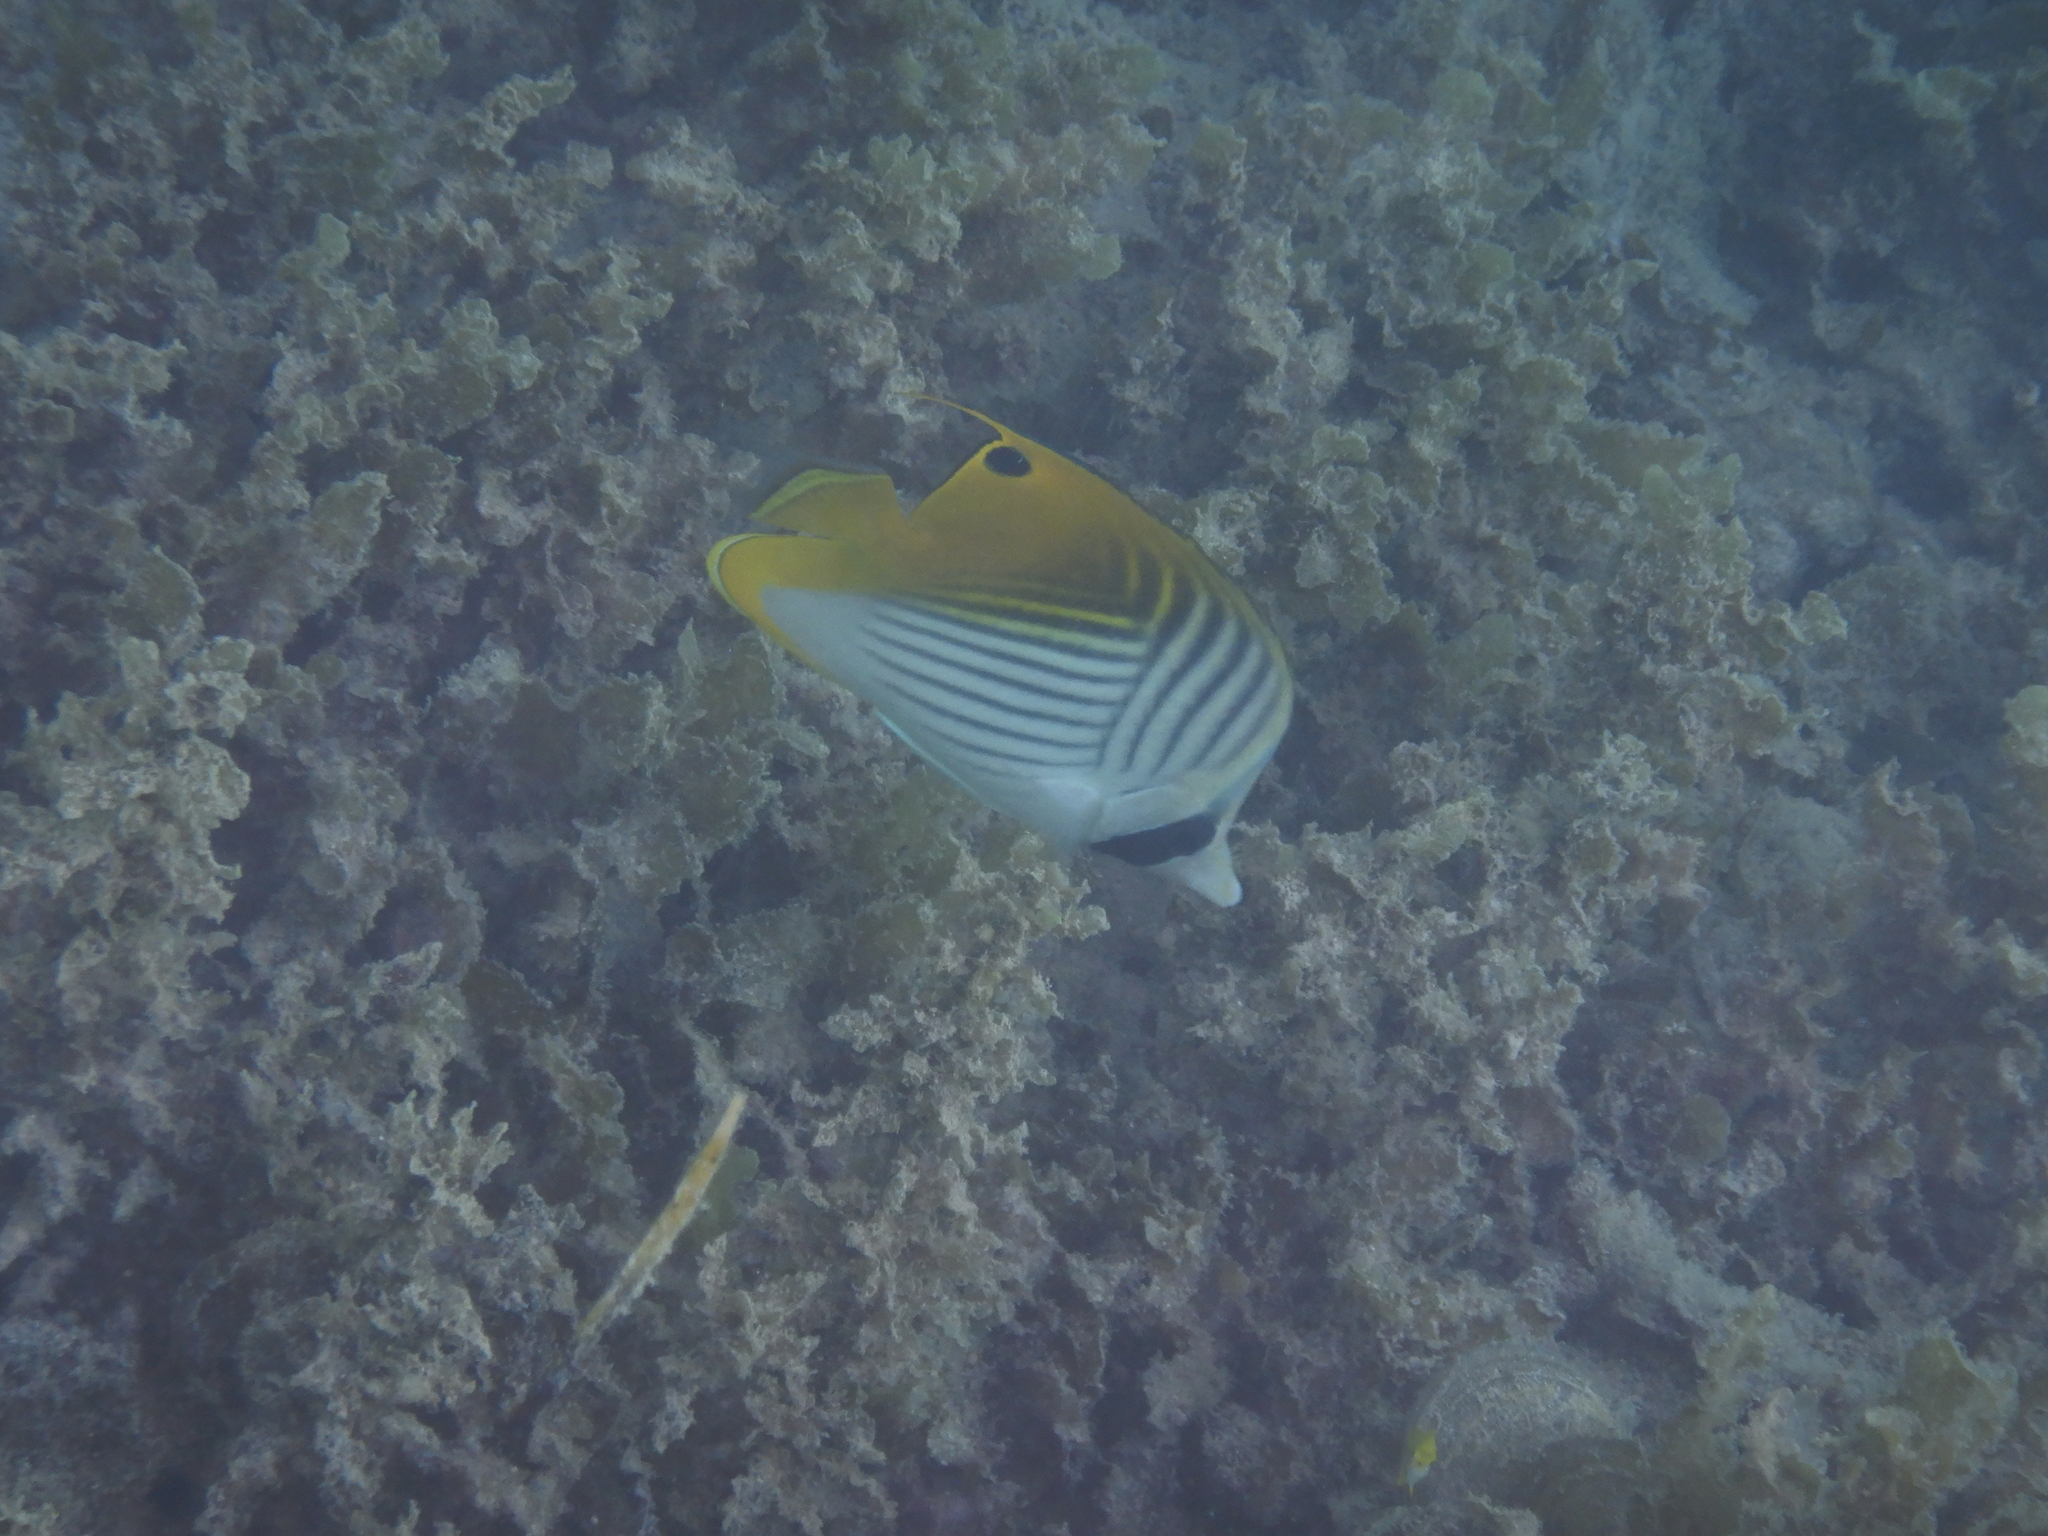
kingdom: Animalia
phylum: Chordata
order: Perciformes
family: Chaetodontidae
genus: Chaetodon
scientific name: Chaetodon auriga
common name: Threadfin butterflyfish
